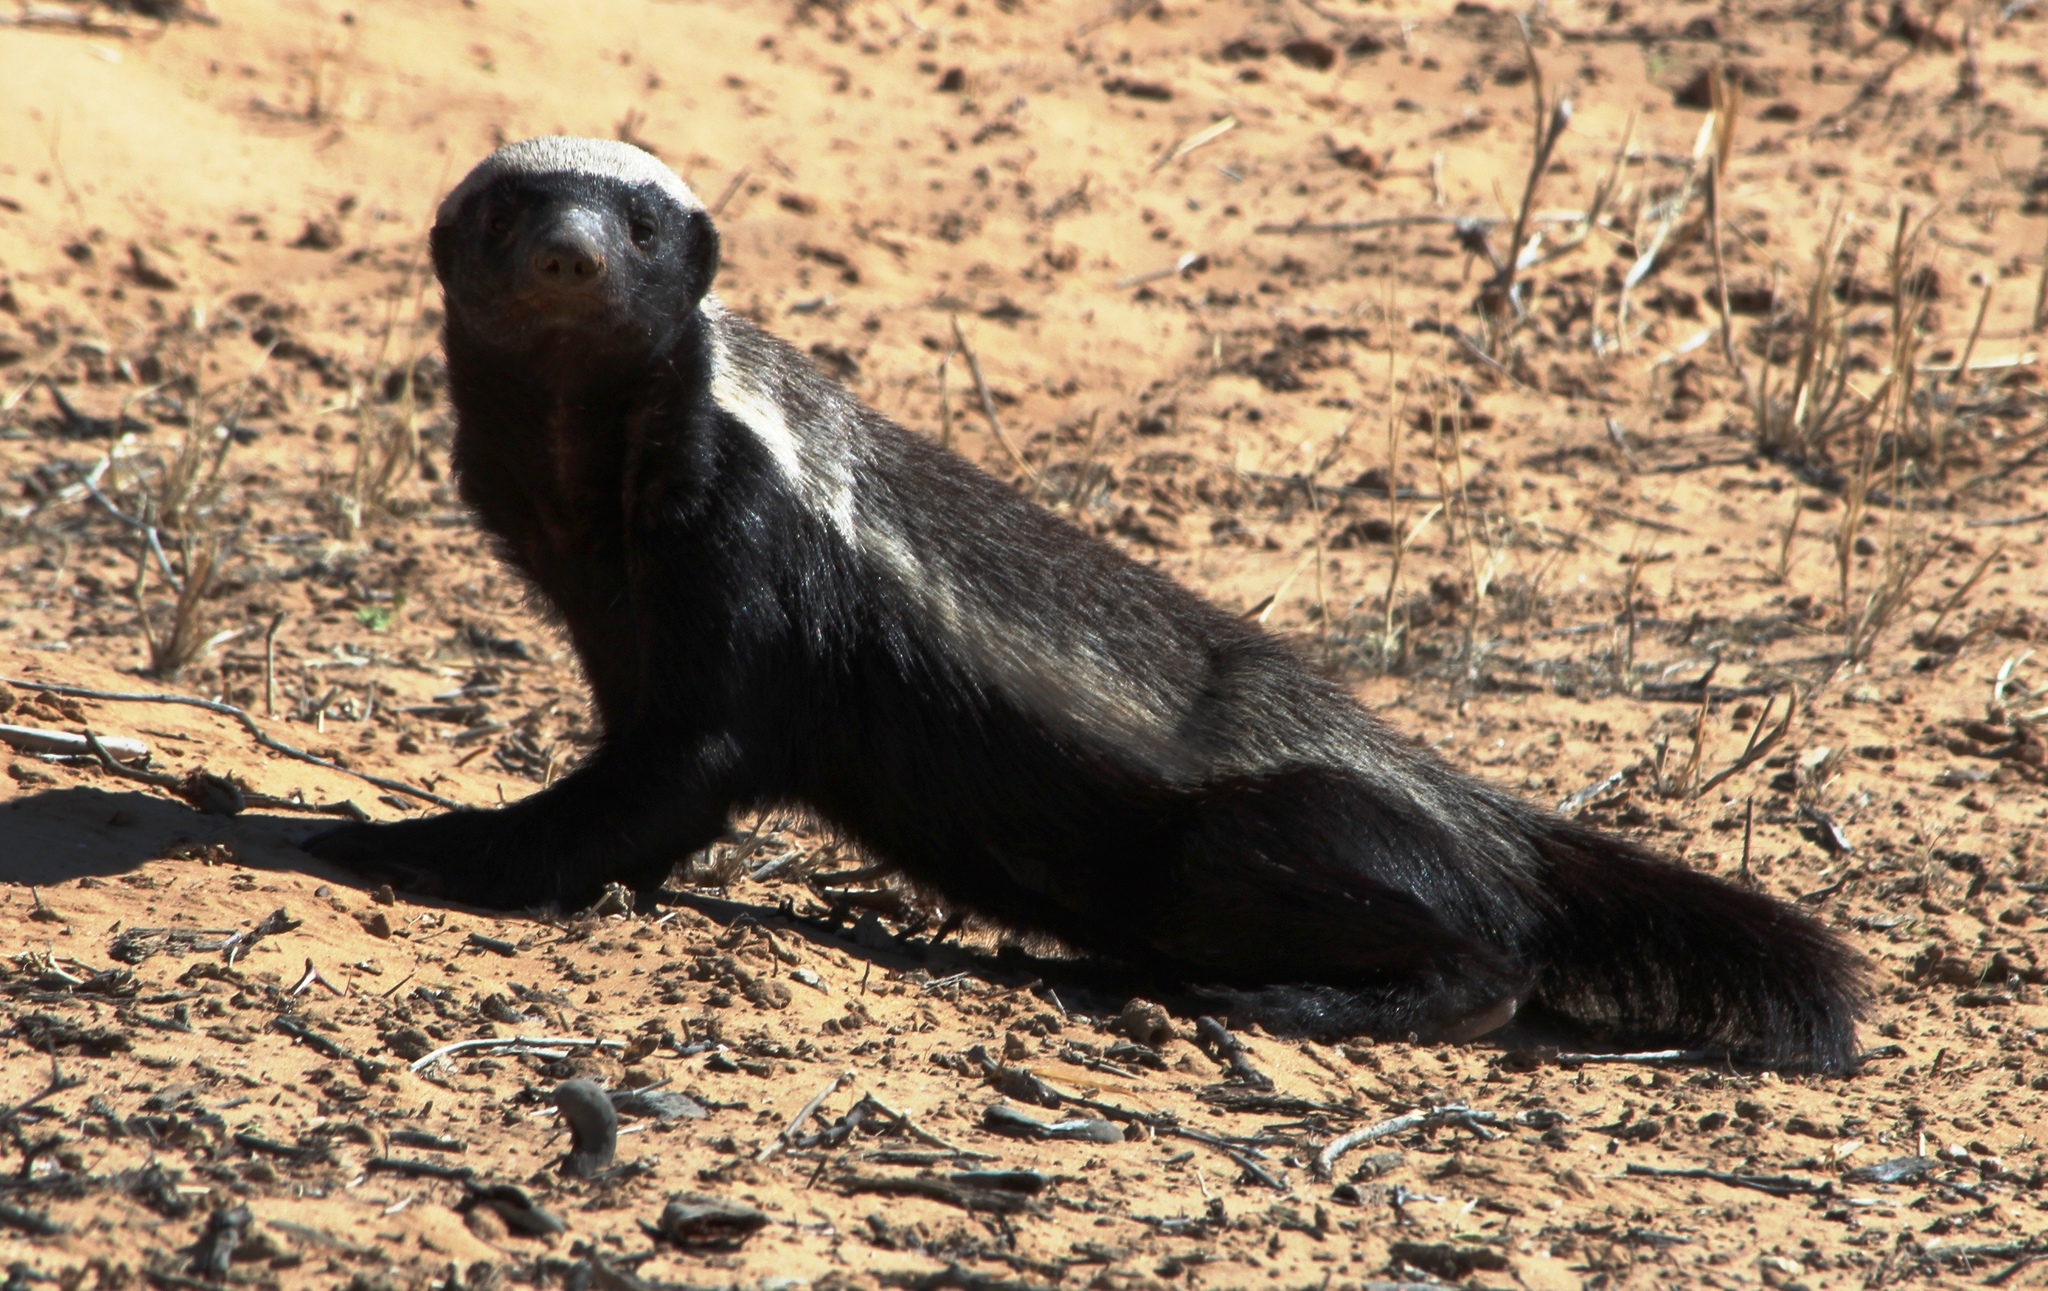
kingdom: Animalia
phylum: Chordata
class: Mammalia
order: Carnivora
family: Mustelidae
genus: Mellivora
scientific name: Mellivora capensis
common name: Honey badger
